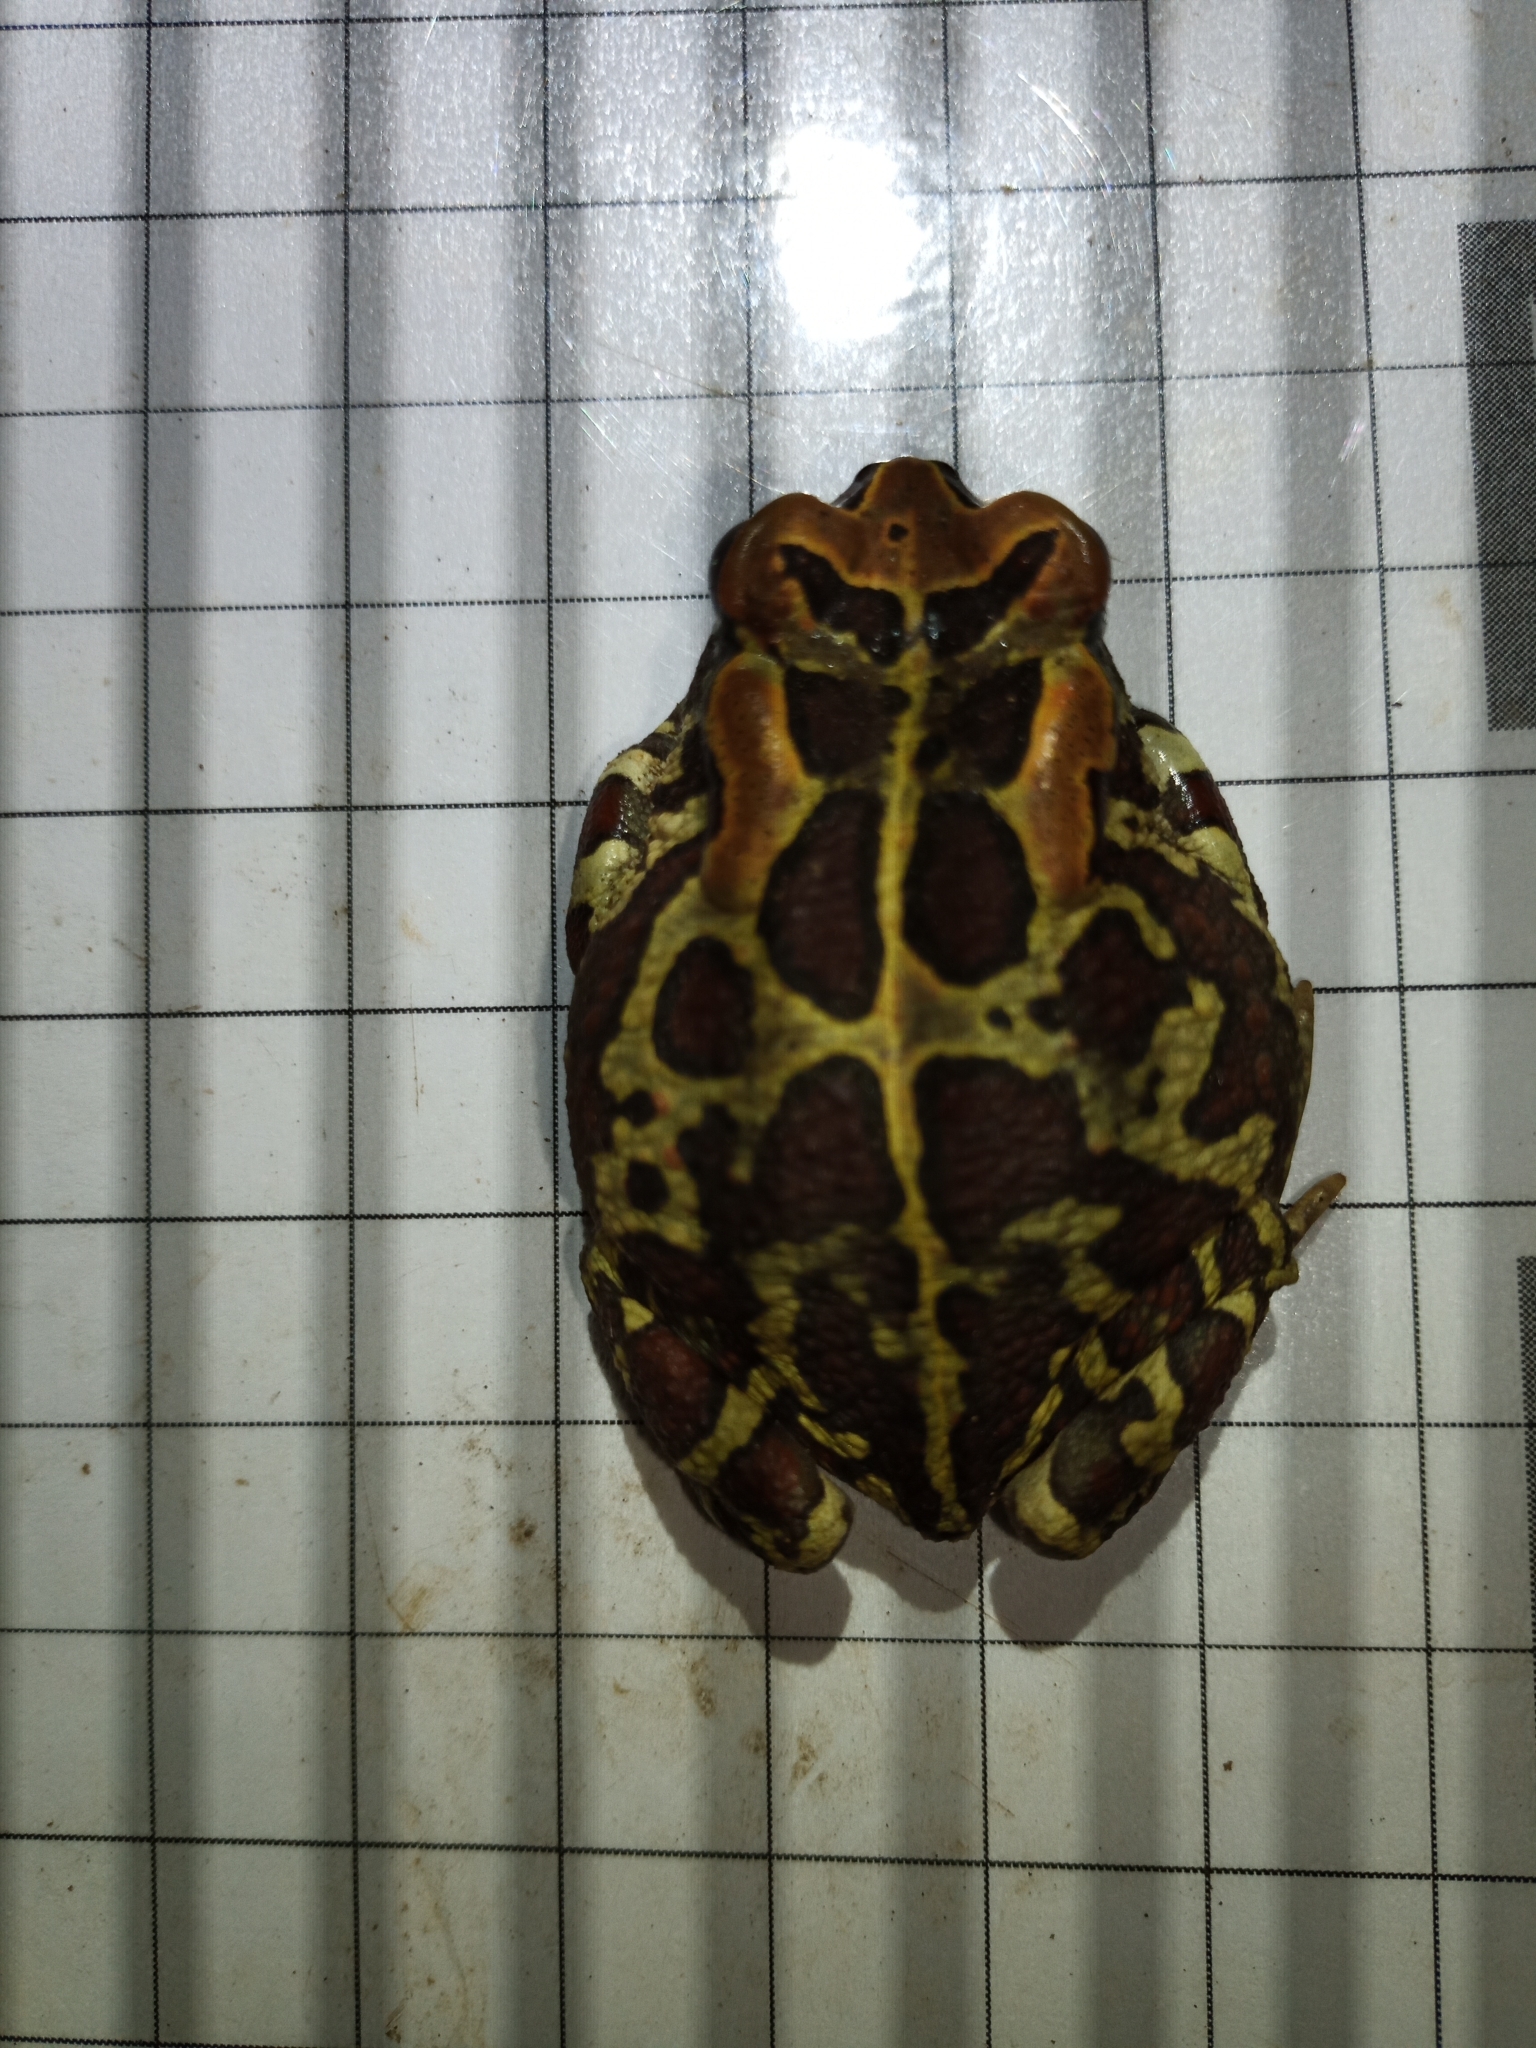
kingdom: Animalia
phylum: Chordata
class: Amphibia
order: Anura
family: Bufonidae
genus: Sclerophrys
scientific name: Sclerophrys pantherina
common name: Panther toad
